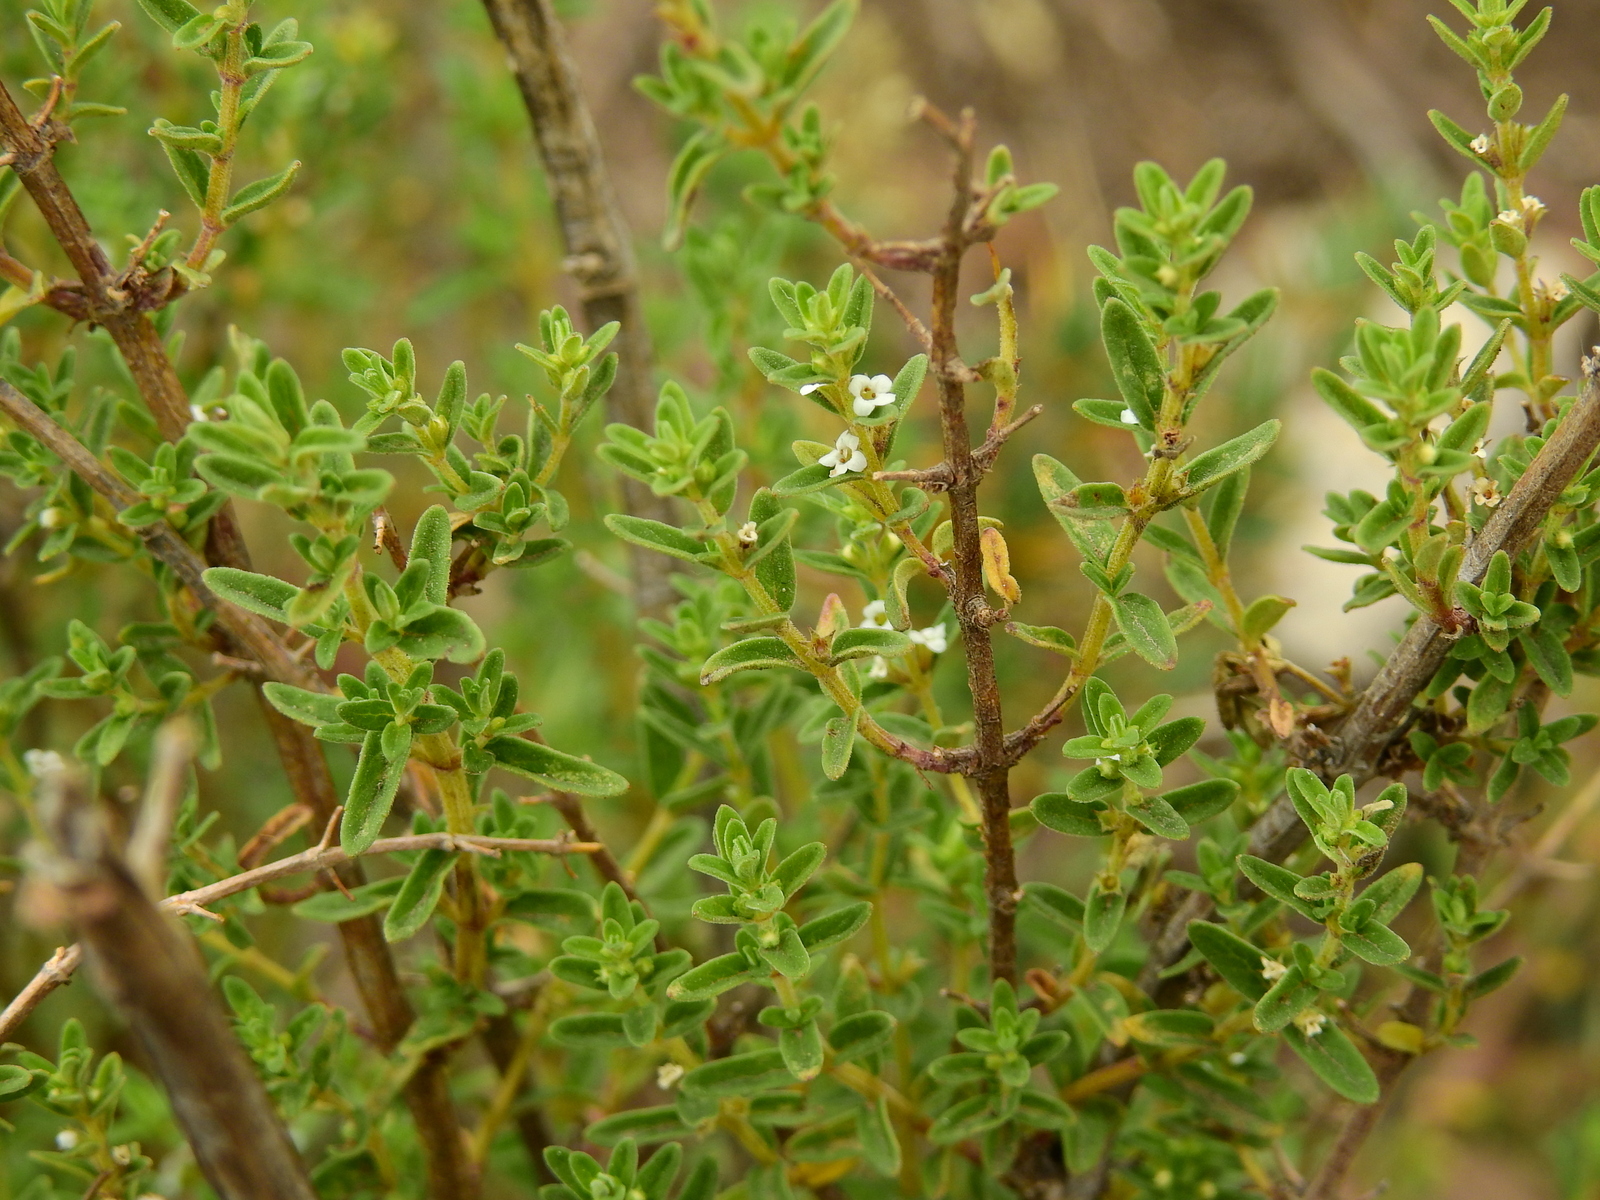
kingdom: Plantae
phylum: Tracheophyta
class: Magnoliopsida
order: Lamiales
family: Lamiaceae
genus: Clinopodium
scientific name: Clinopodium gilliesii
